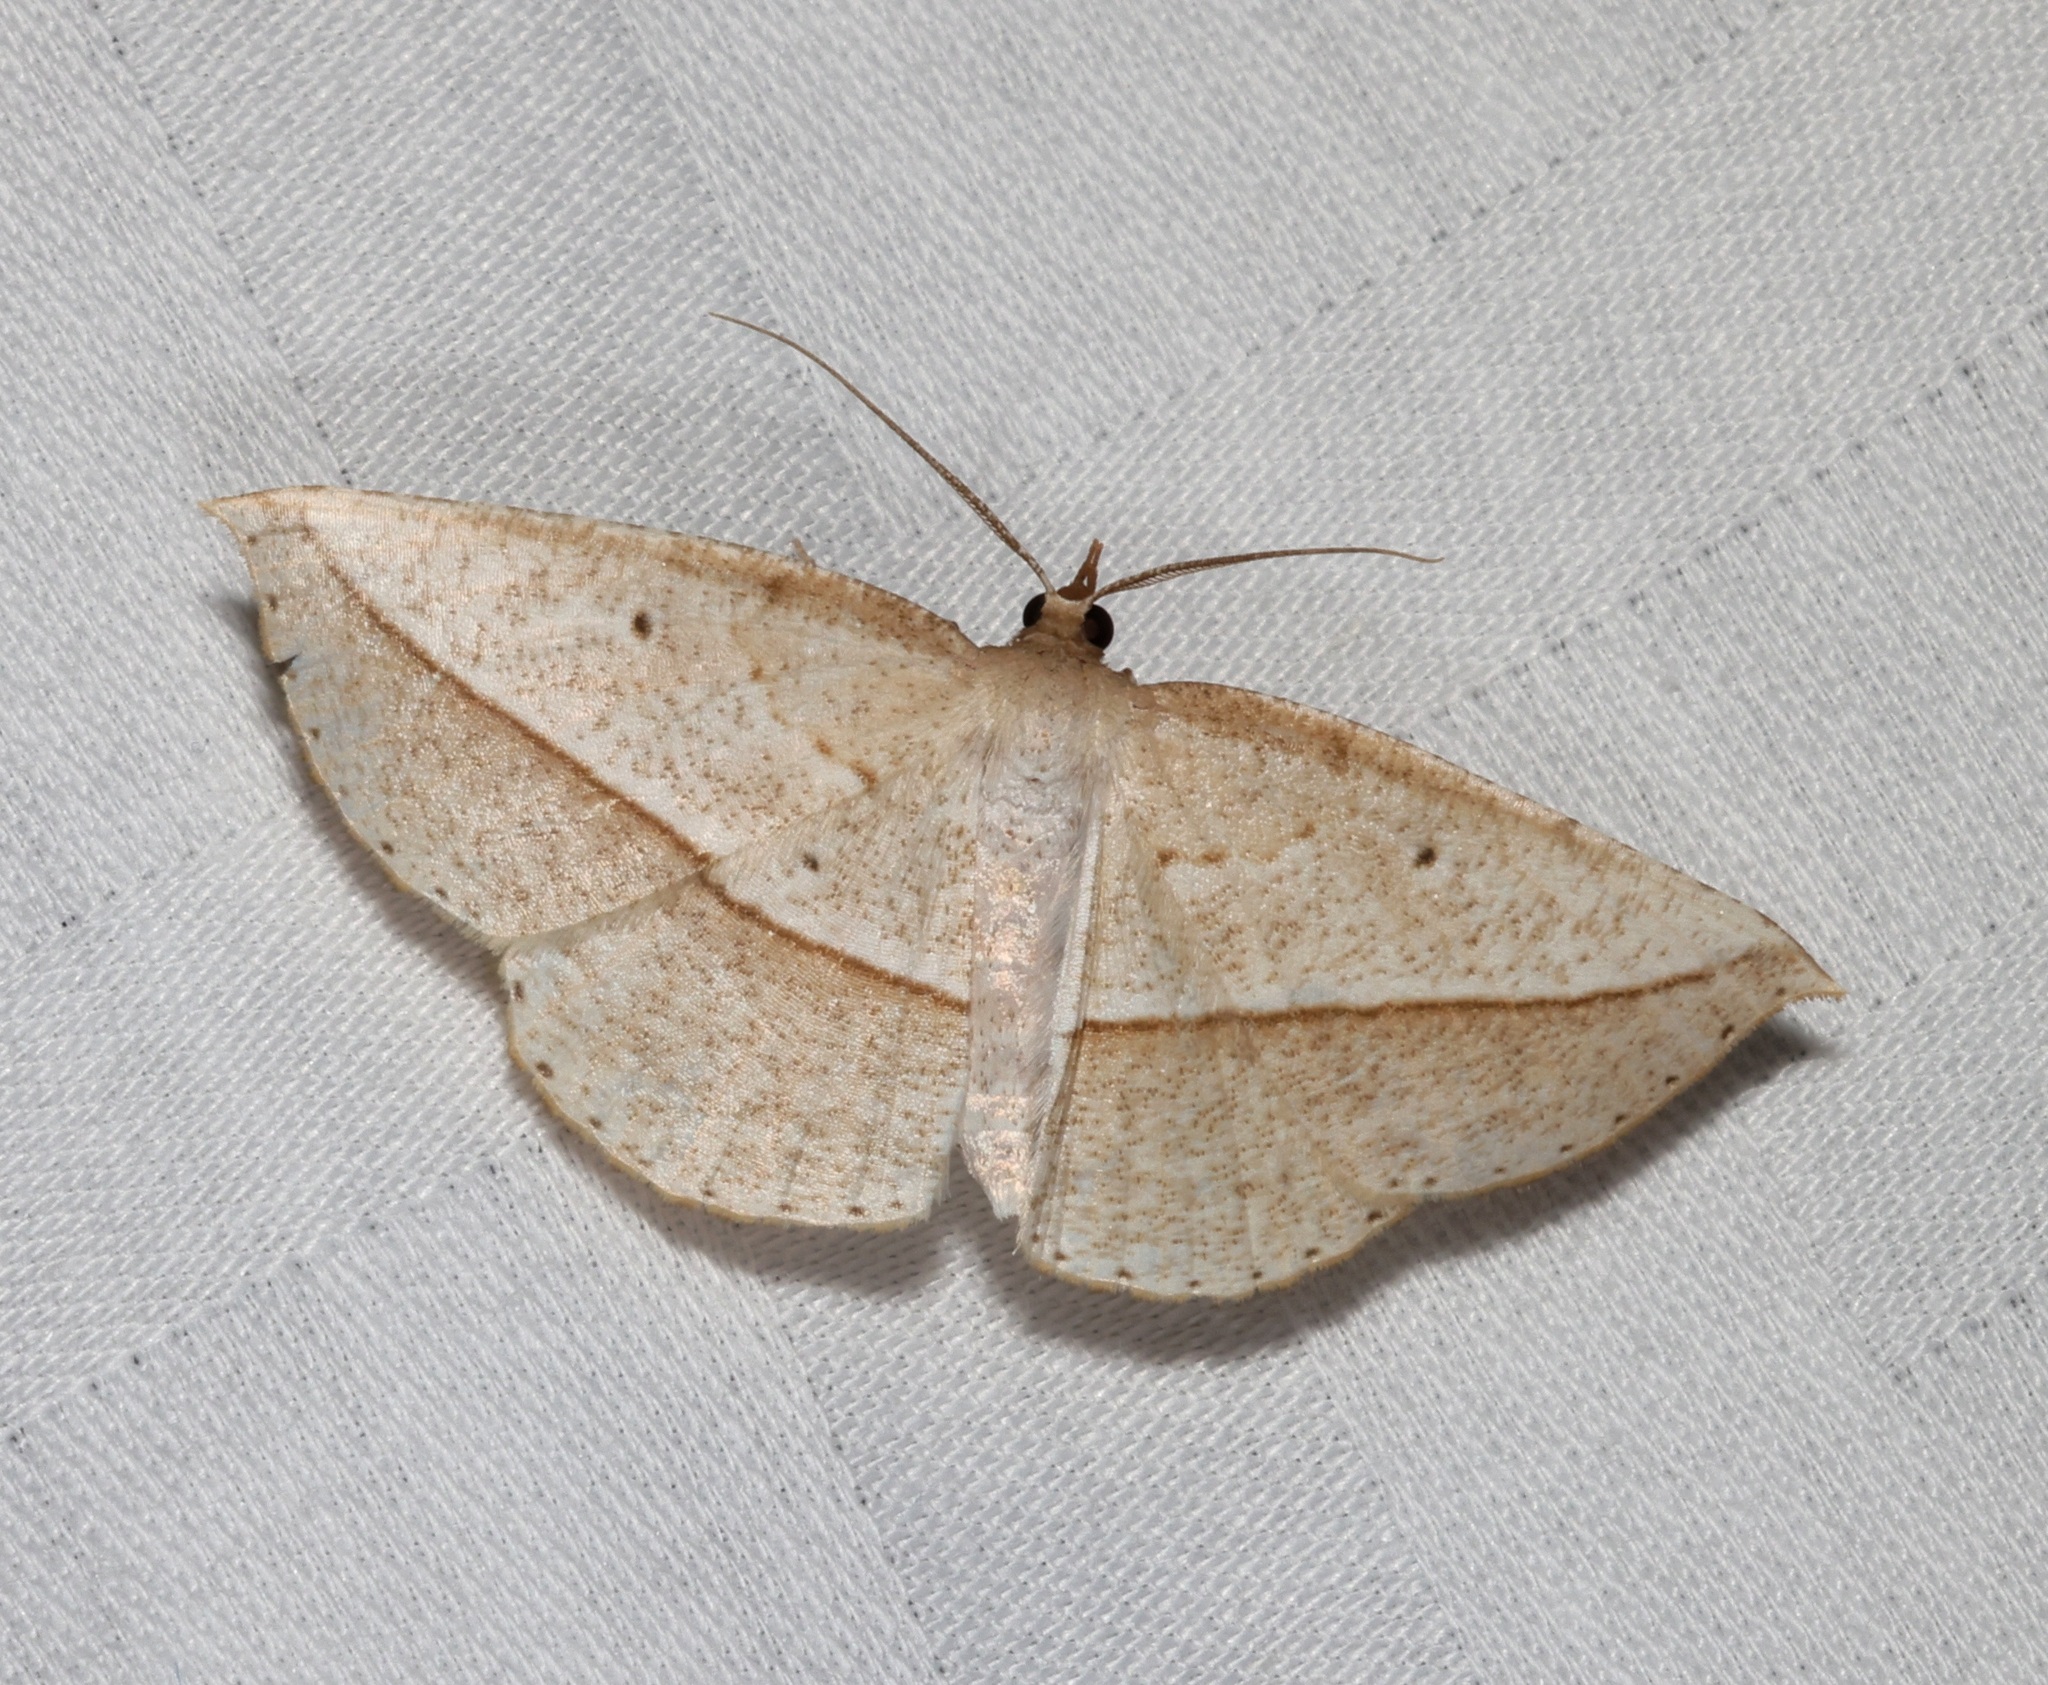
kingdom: Animalia
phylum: Arthropoda
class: Insecta
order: Lepidoptera
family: Geometridae
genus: Heteralex
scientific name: Heteralex unilinea
